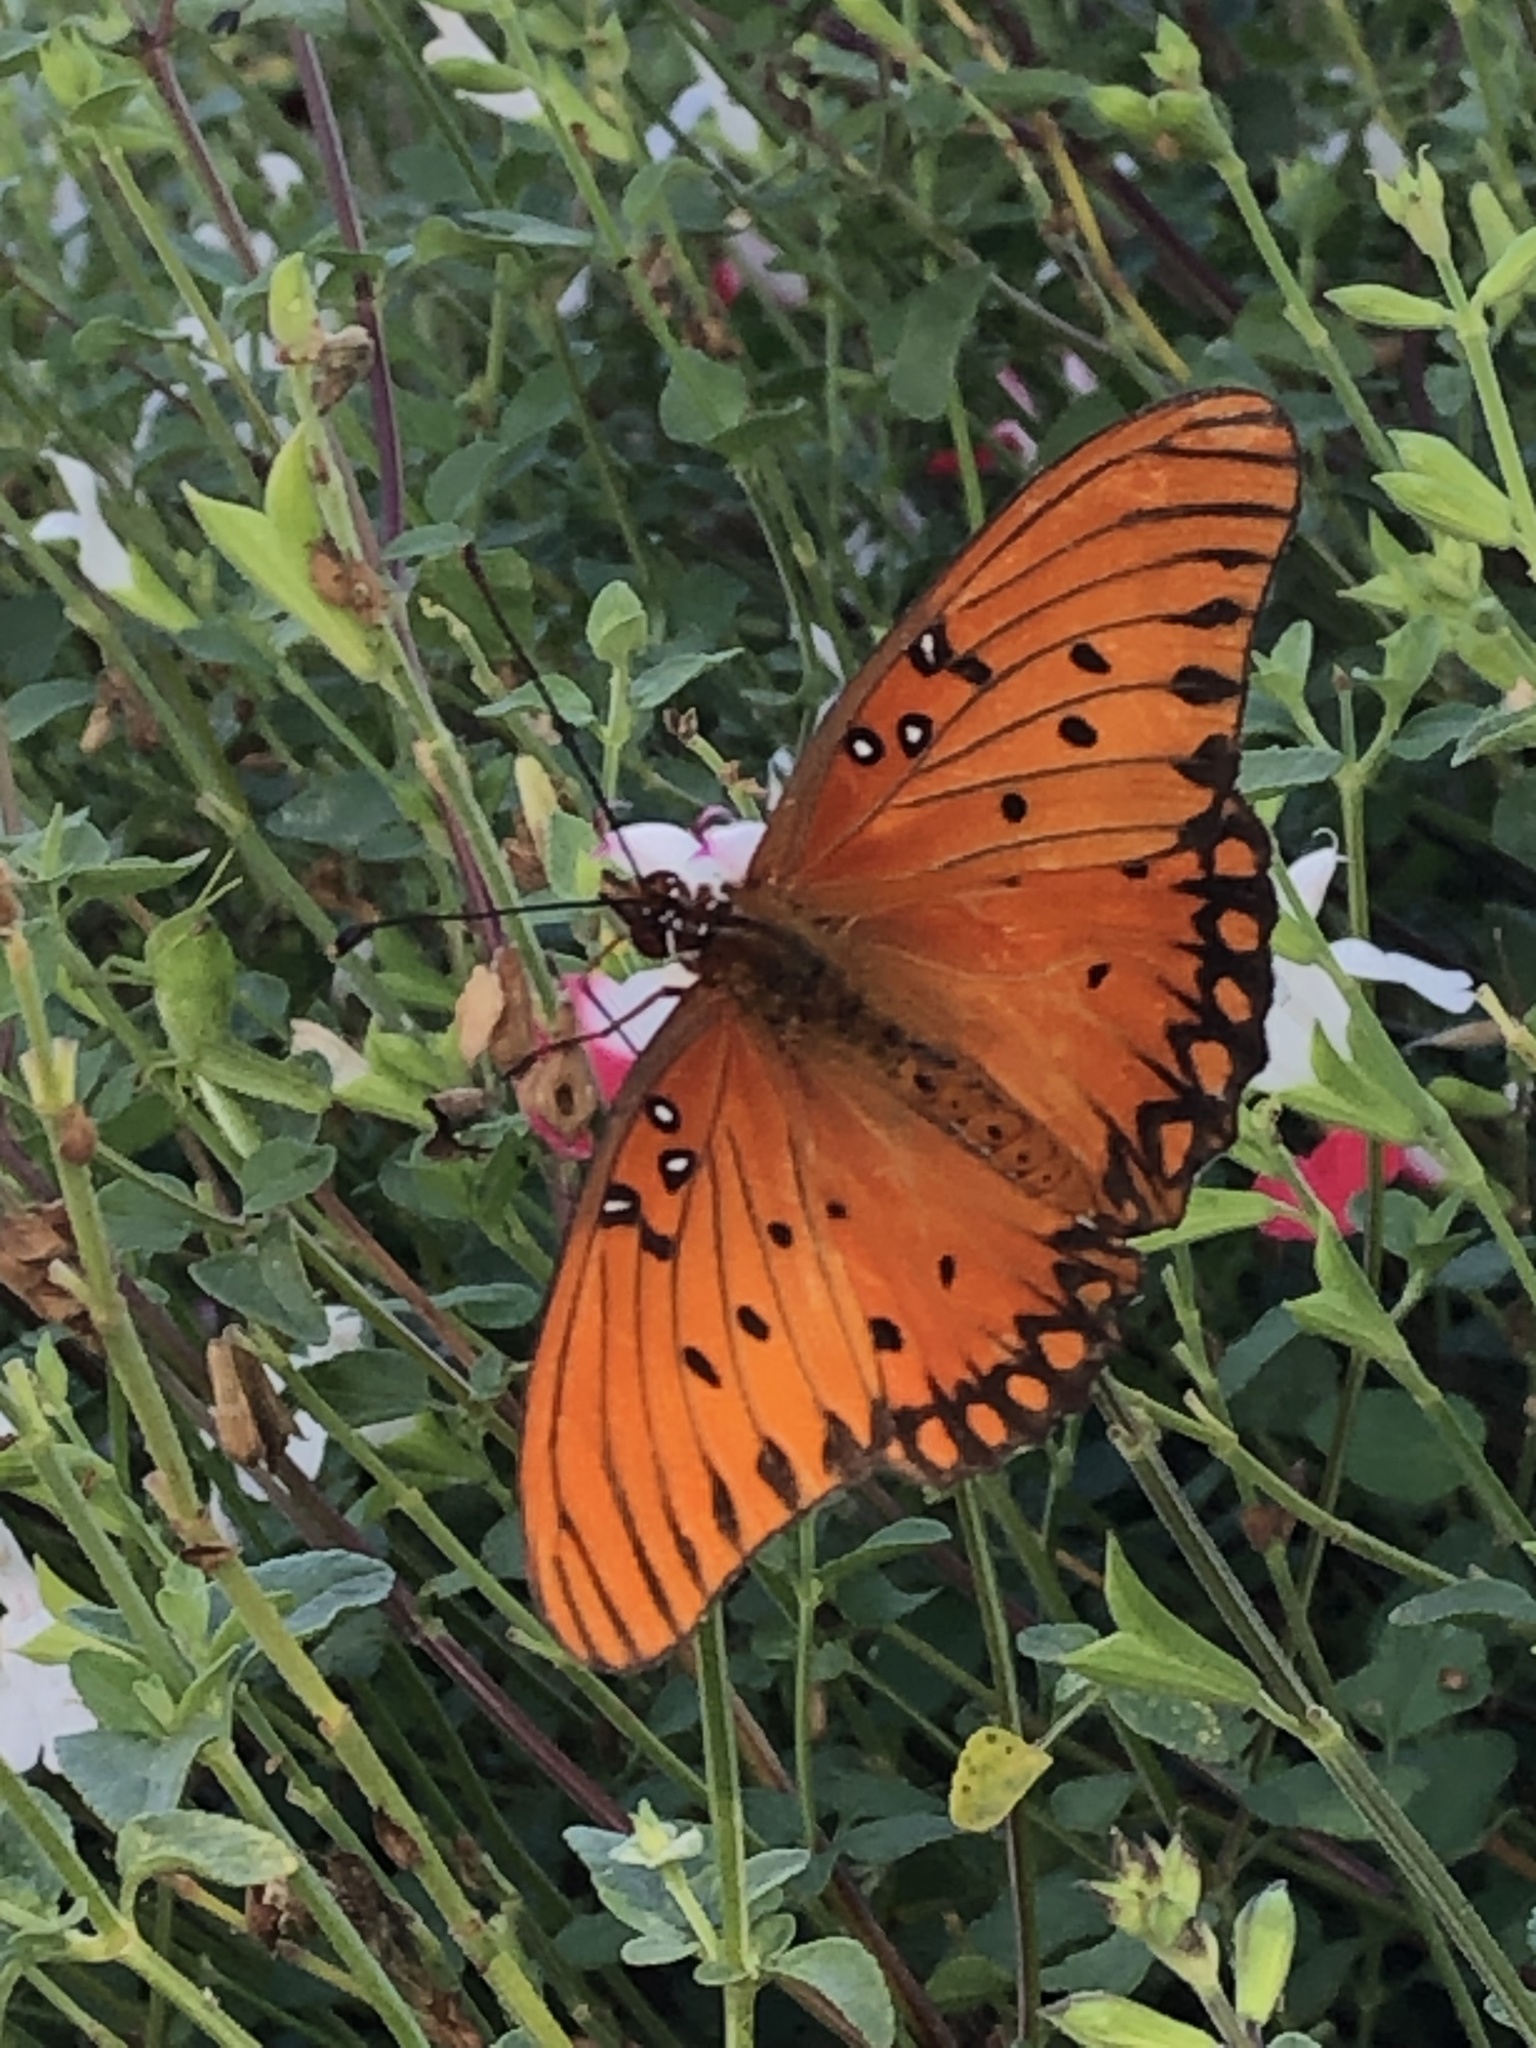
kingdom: Animalia
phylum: Arthropoda
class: Insecta
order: Lepidoptera
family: Nymphalidae
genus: Dione
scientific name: Dione vanillae
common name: Gulf fritillary
